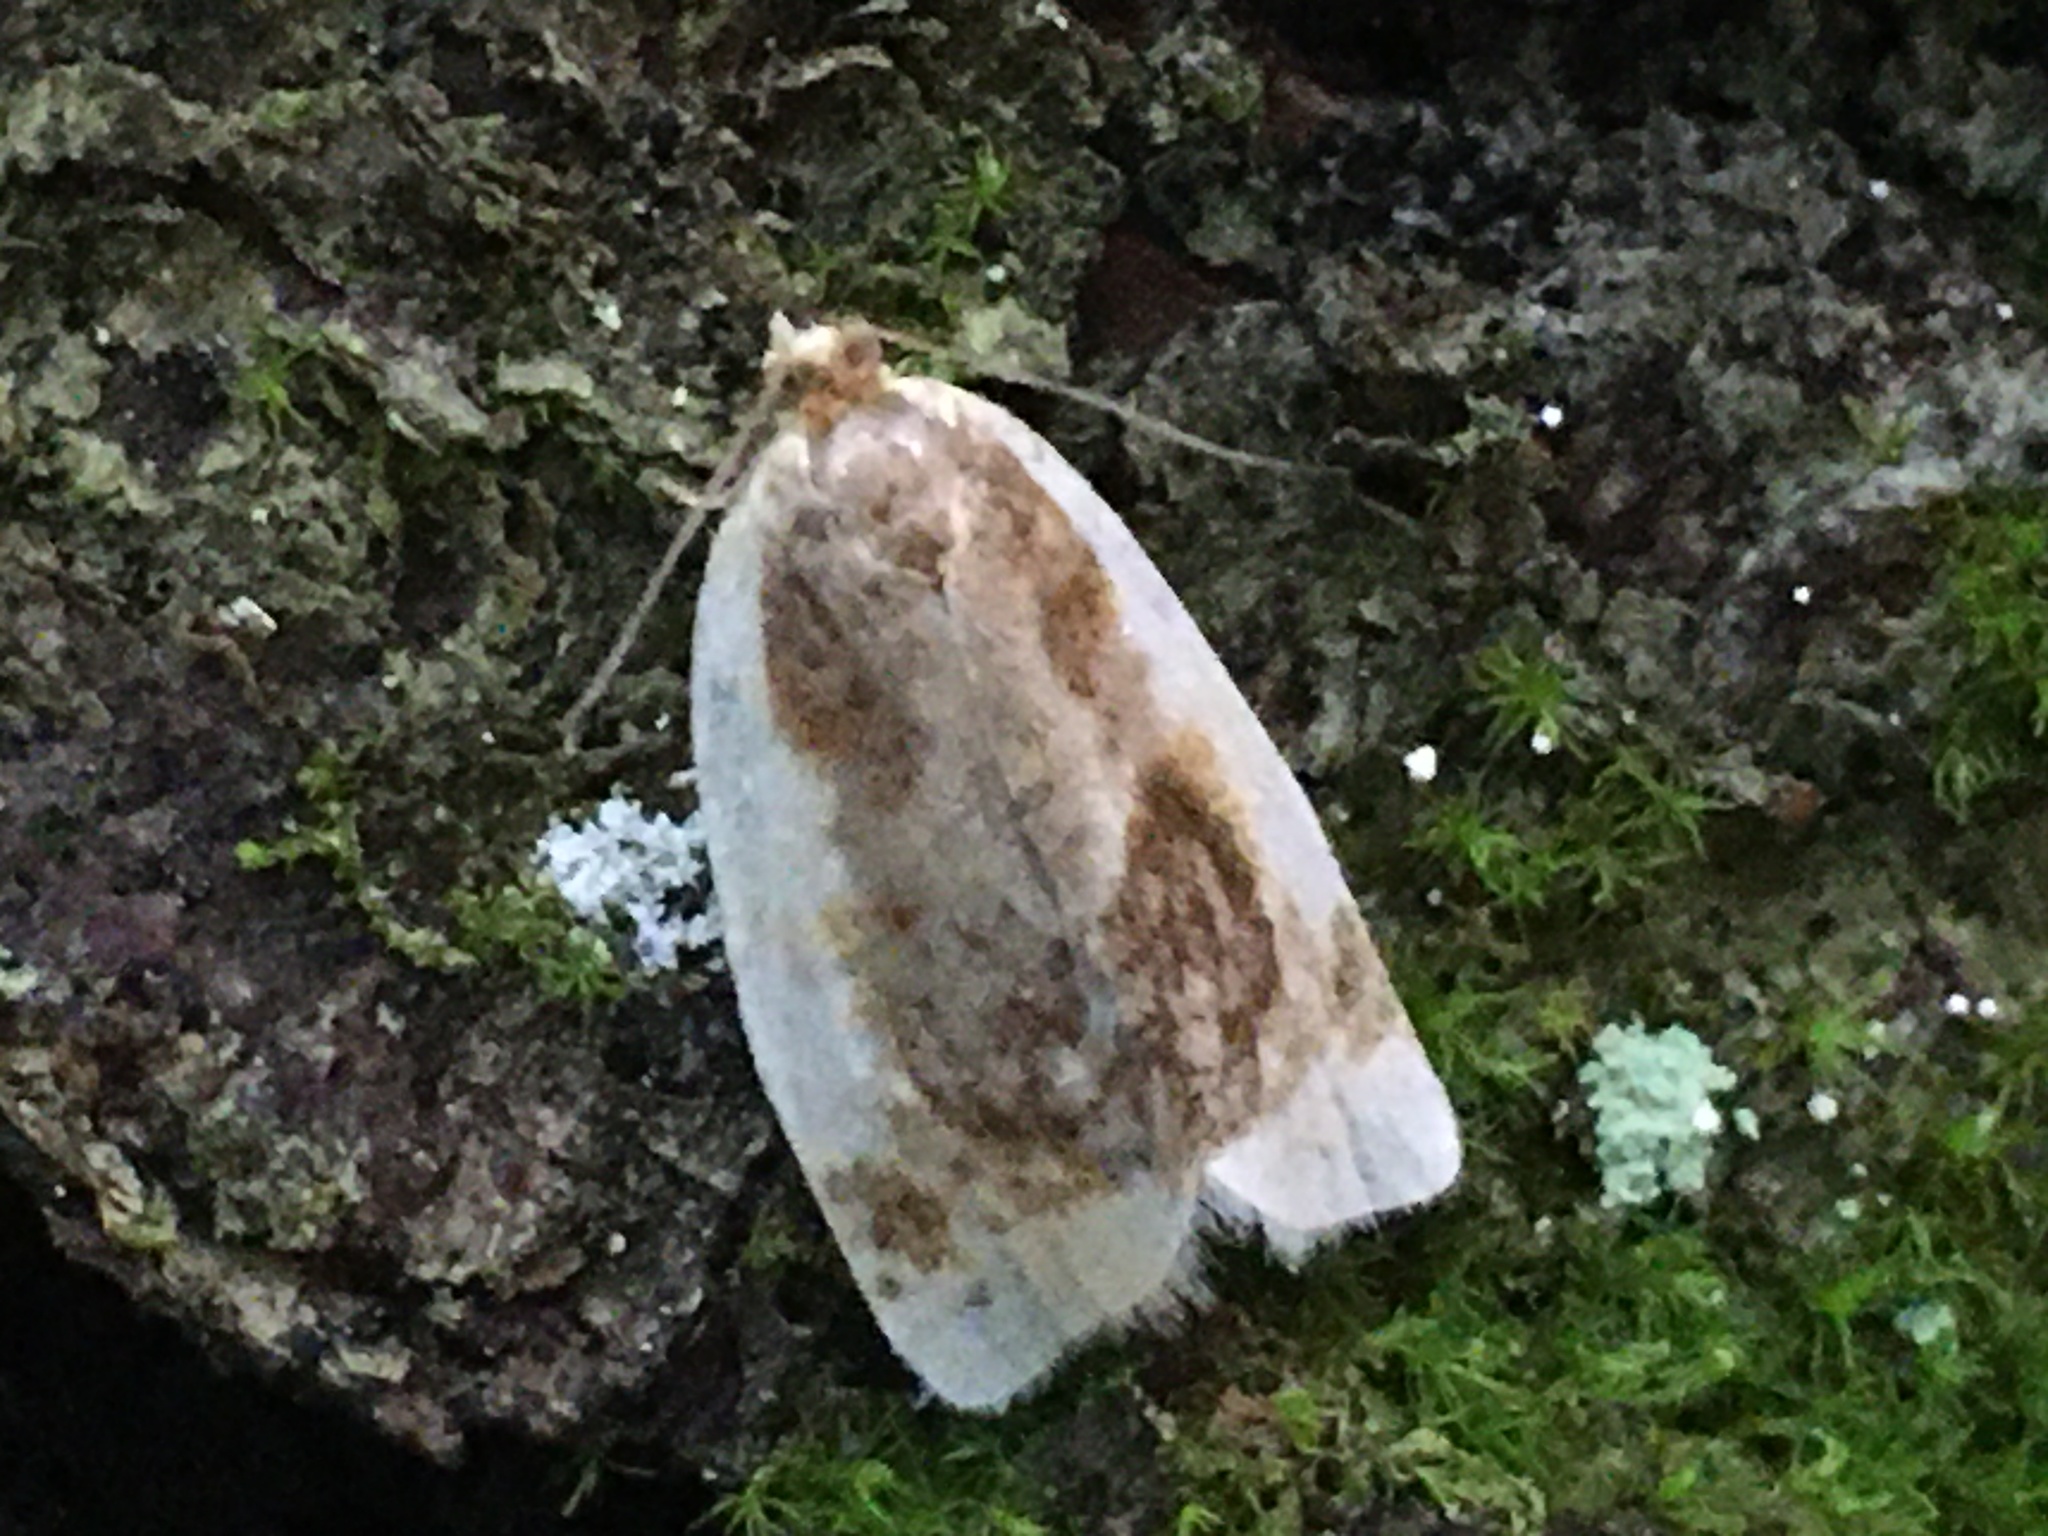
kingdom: Animalia
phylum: Arthropoda
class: Insecta
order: Lepidoptera
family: Tortricidae
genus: Clepsis
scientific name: Clepsis melaleucanus
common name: American apple tortrix
